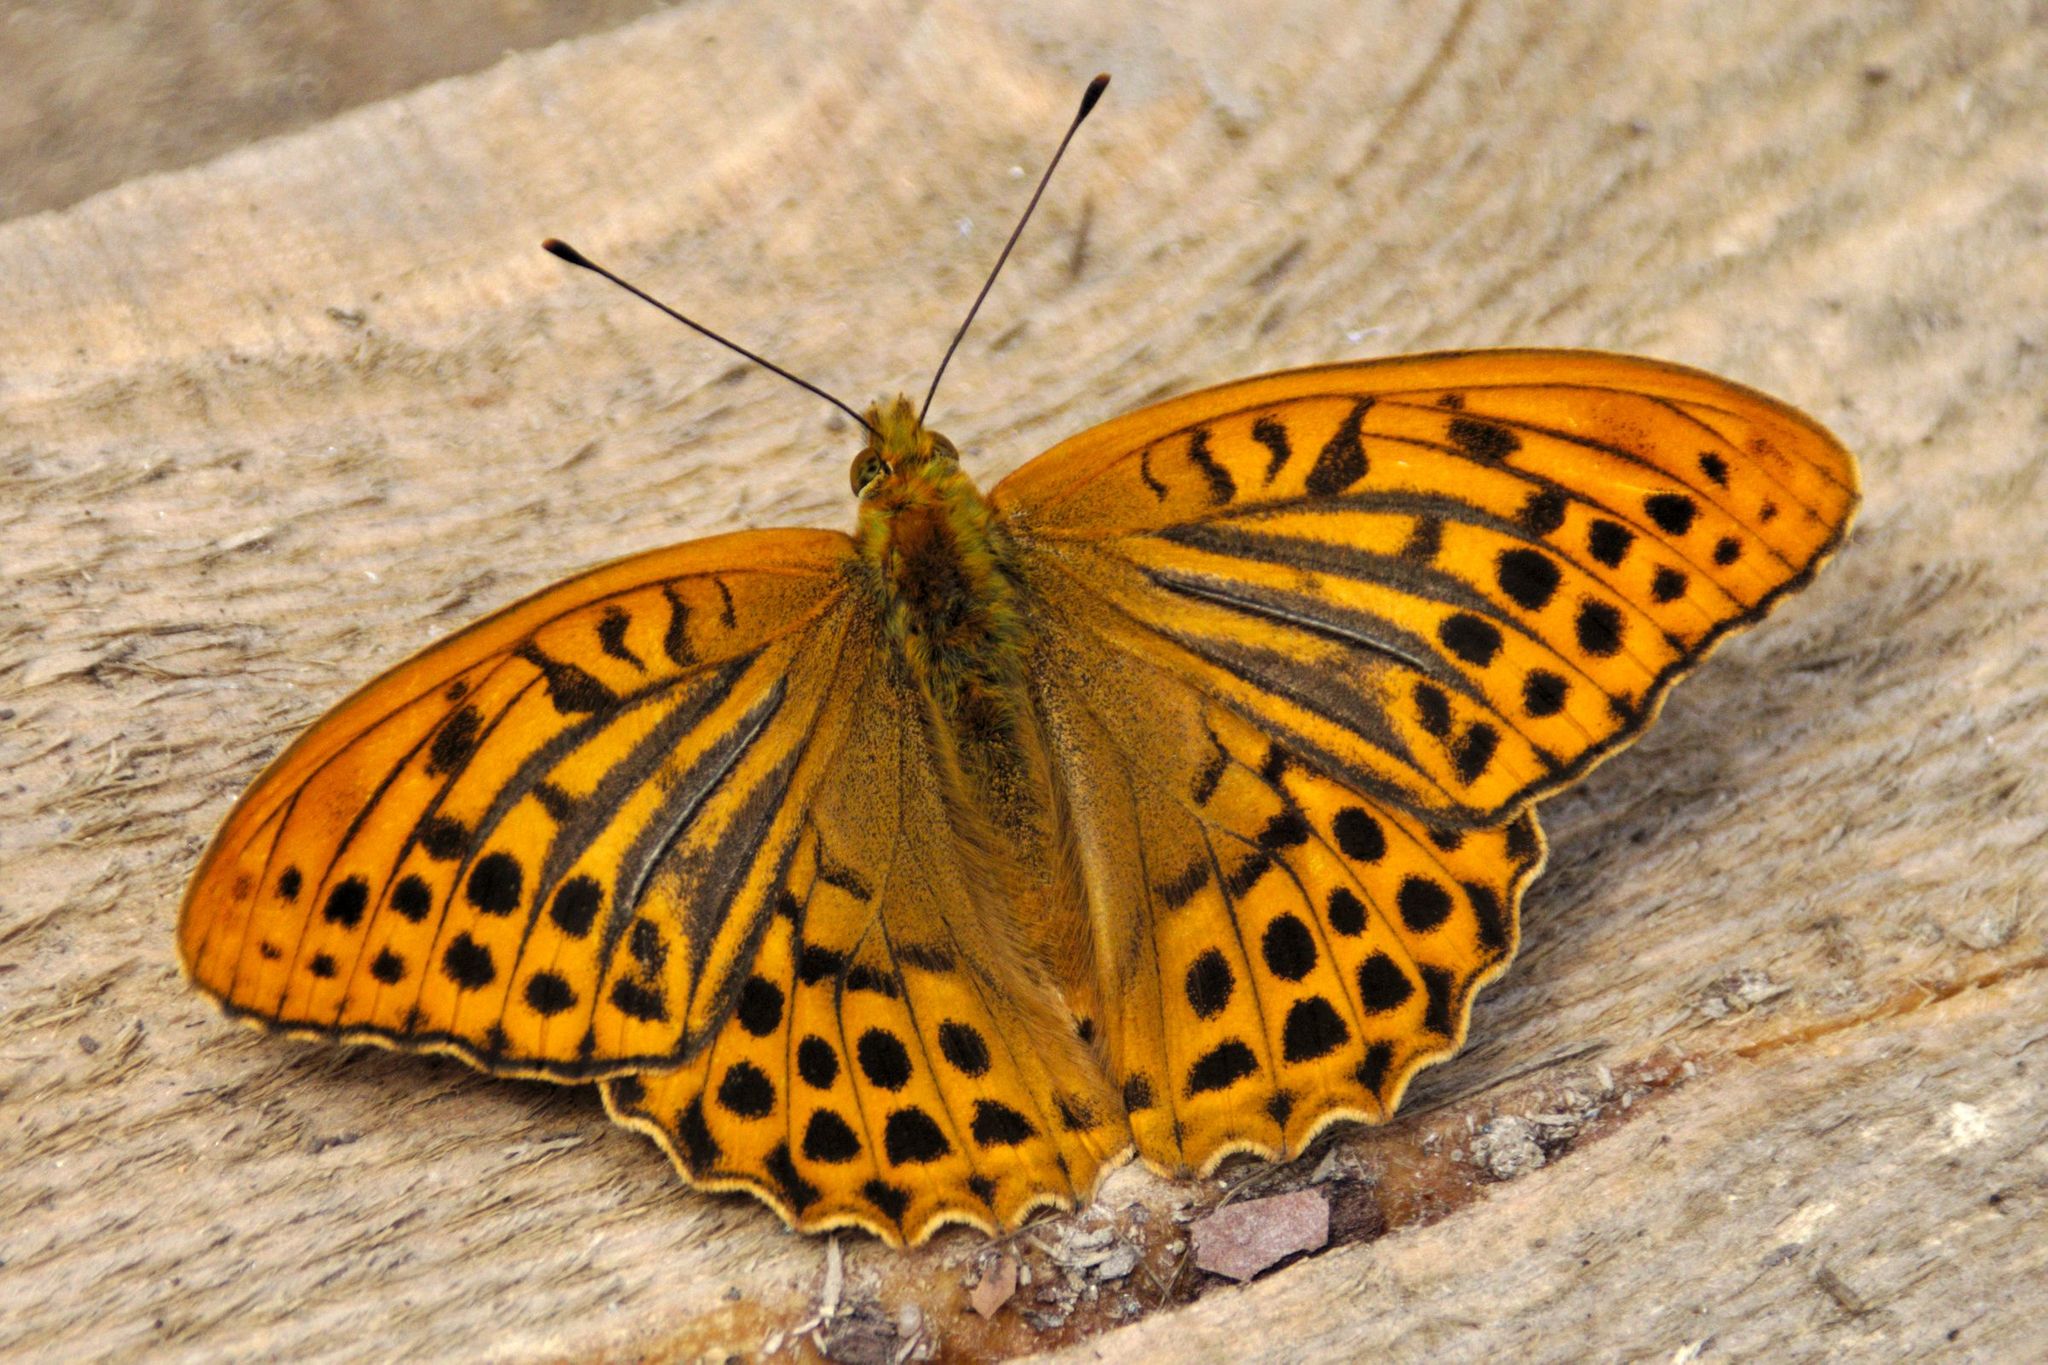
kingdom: Animalia
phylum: Arthropoda
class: Insecta
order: Lepidoptera
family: Nymphalidae
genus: Argynnis
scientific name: Argynnis paphia
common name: Silver-washed fritillary
